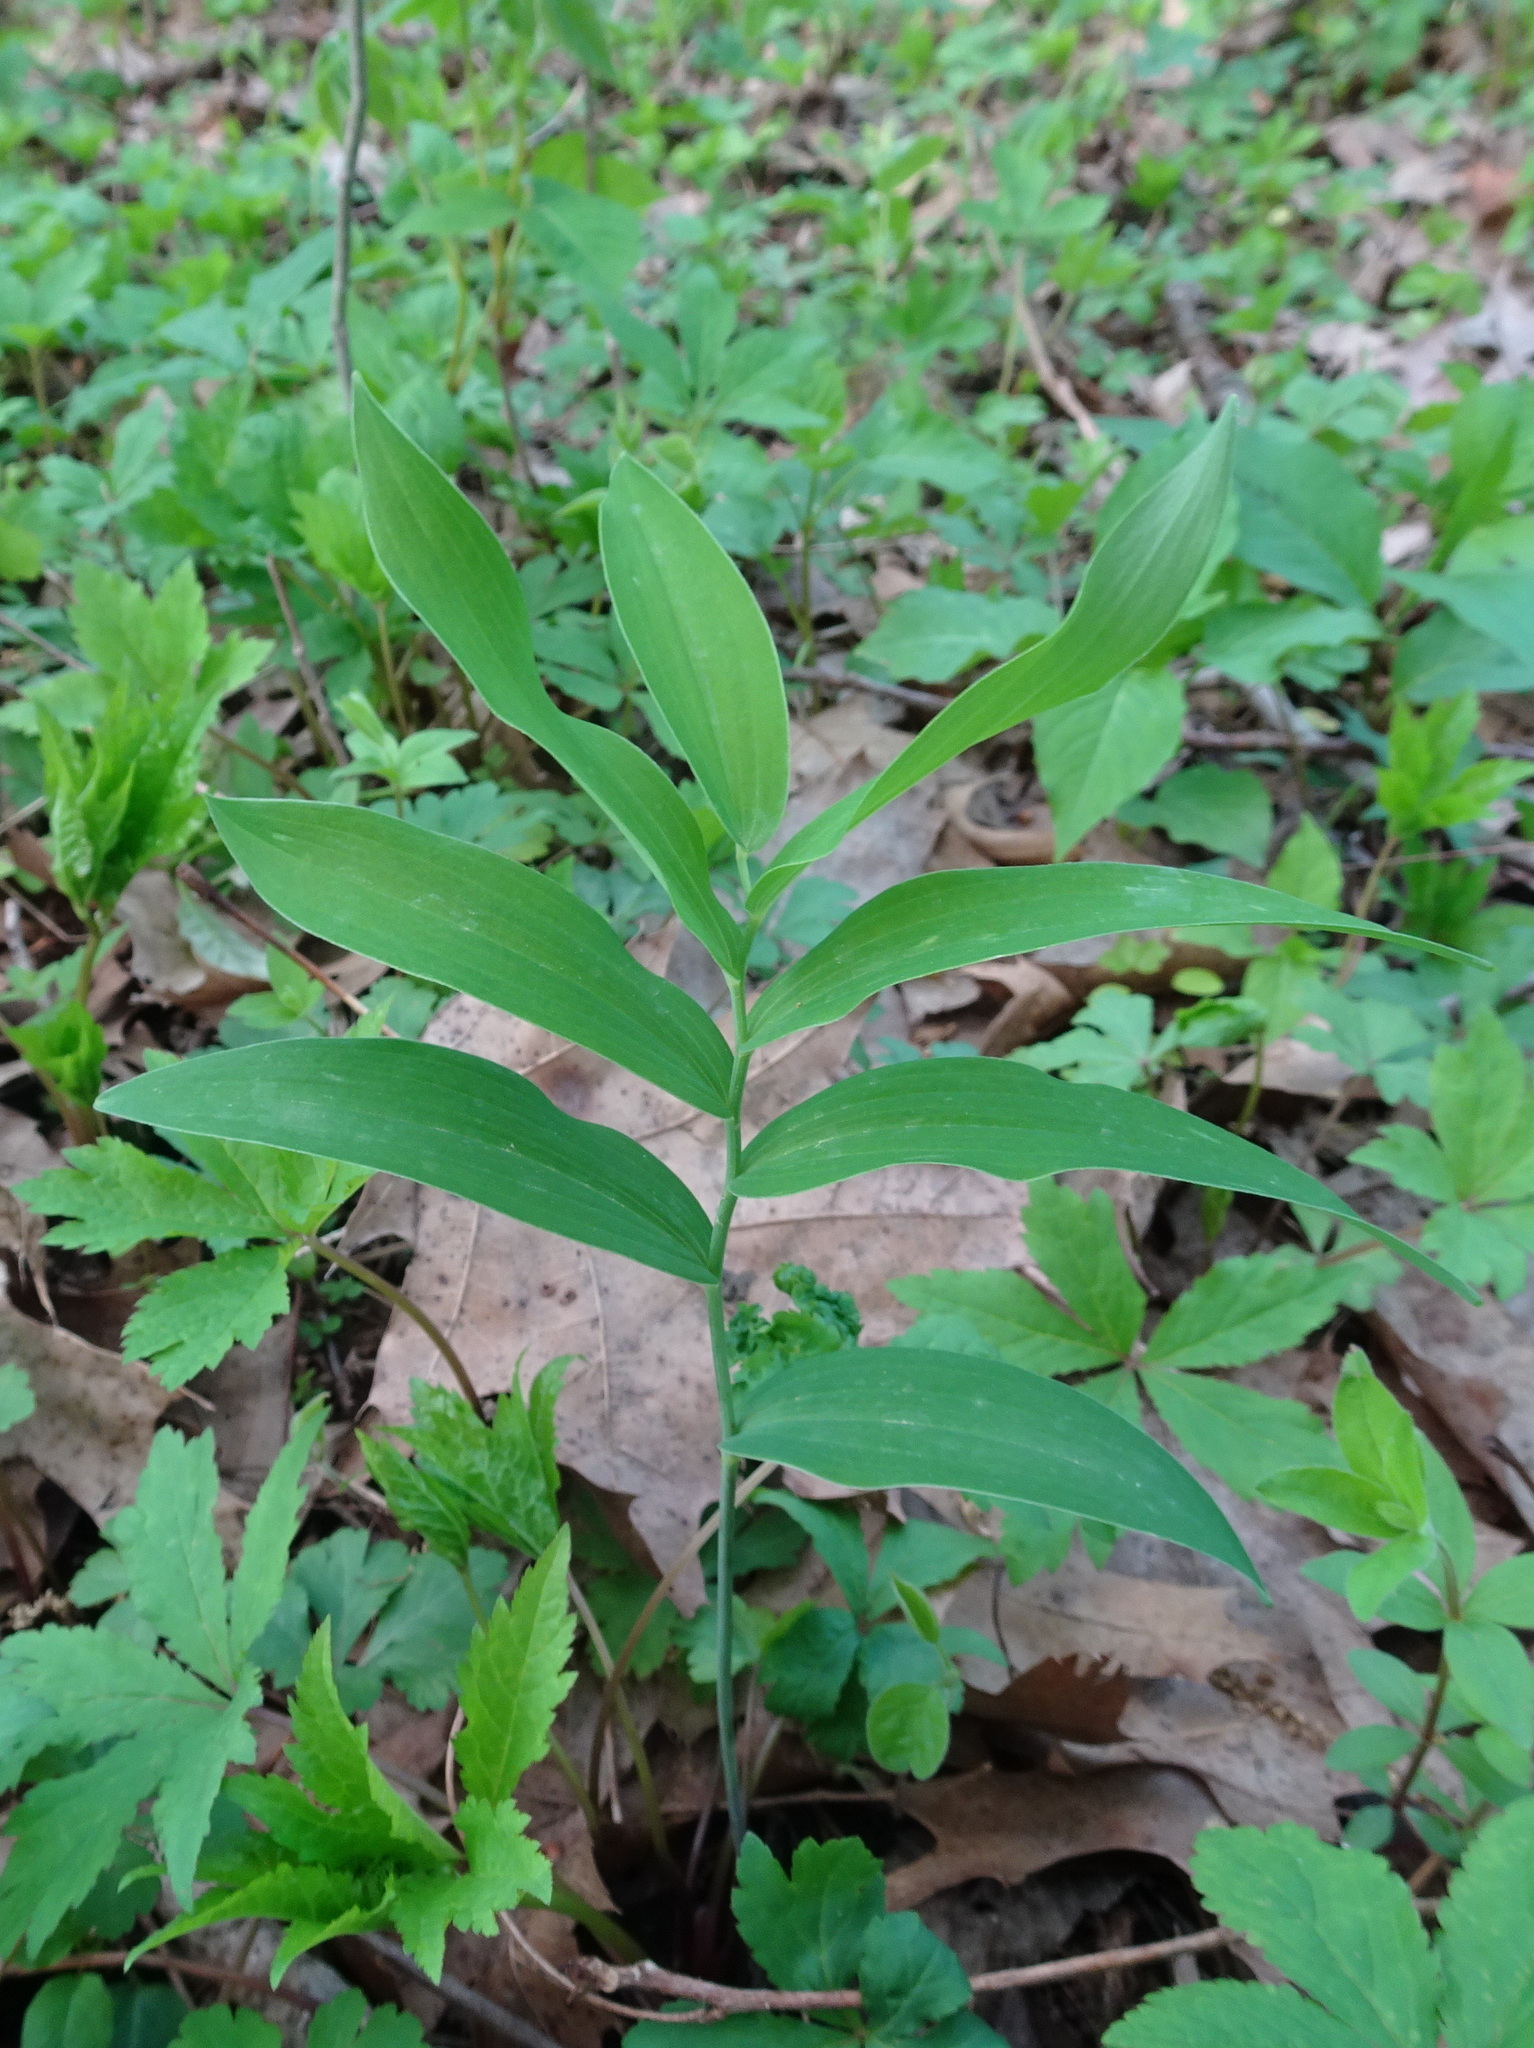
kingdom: Plantae
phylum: Tracheophyta
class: Liliopsida
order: Asparagales
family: Asparagaceae
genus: Polygonatum
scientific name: Polygonatum biflorum
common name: American solomon's-seal
